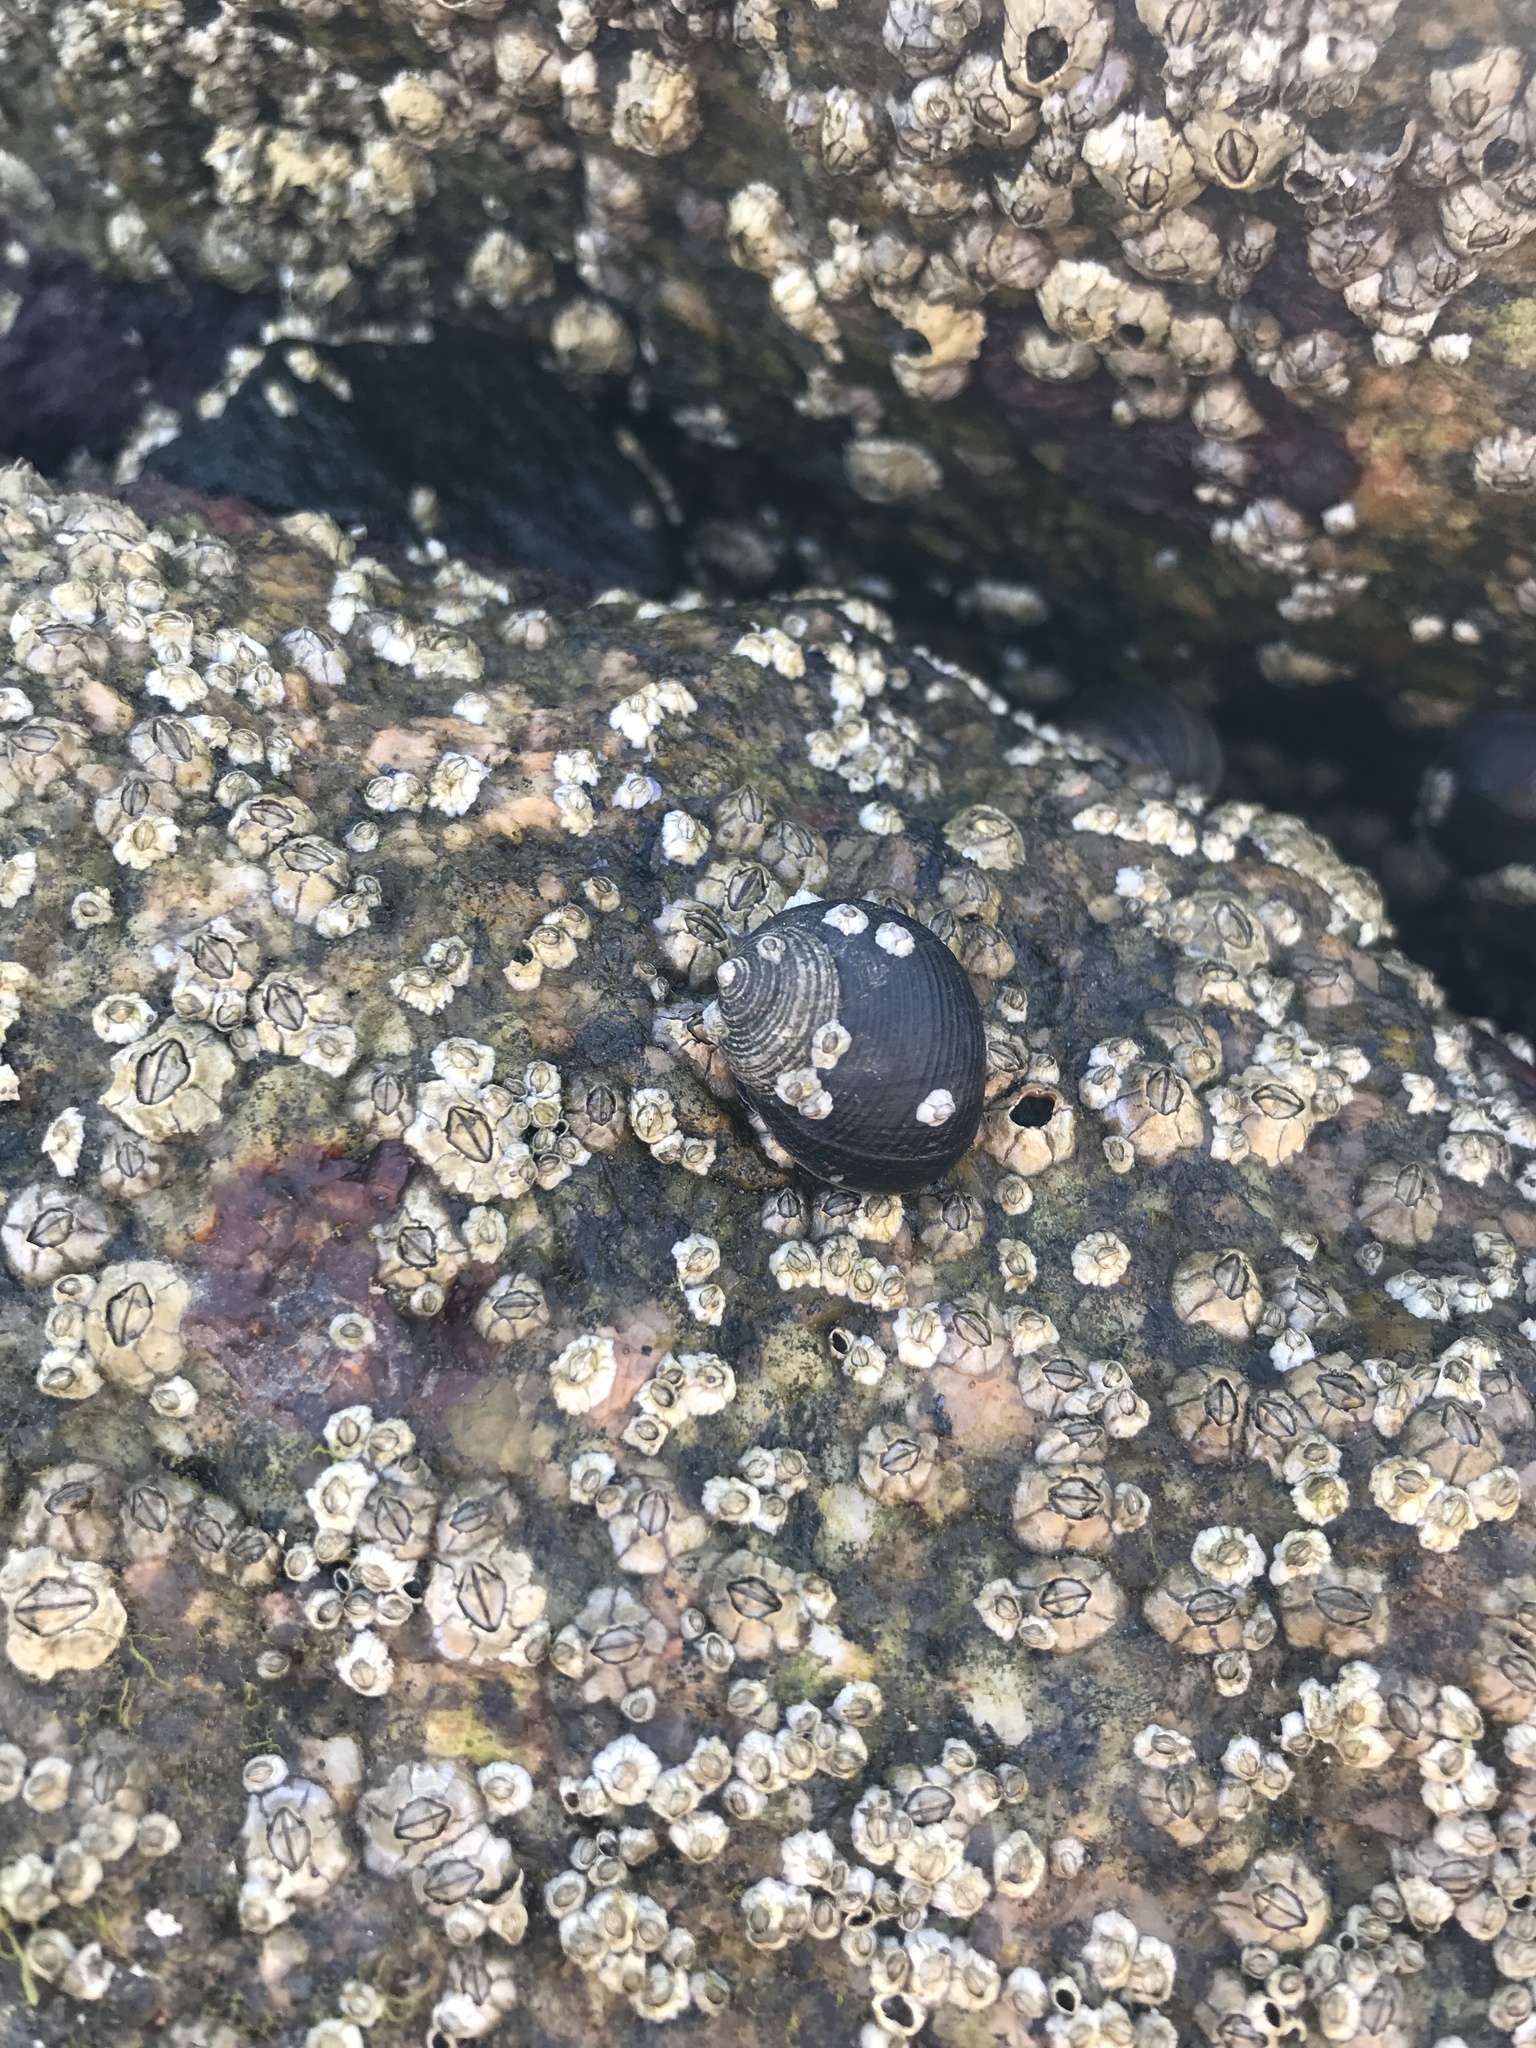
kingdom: Animalia
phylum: Mollusca
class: Gastropoda
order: Littorinimorpha
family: Littorinidae
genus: Littorina
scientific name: Littorina littorea
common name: Common periwinkle
